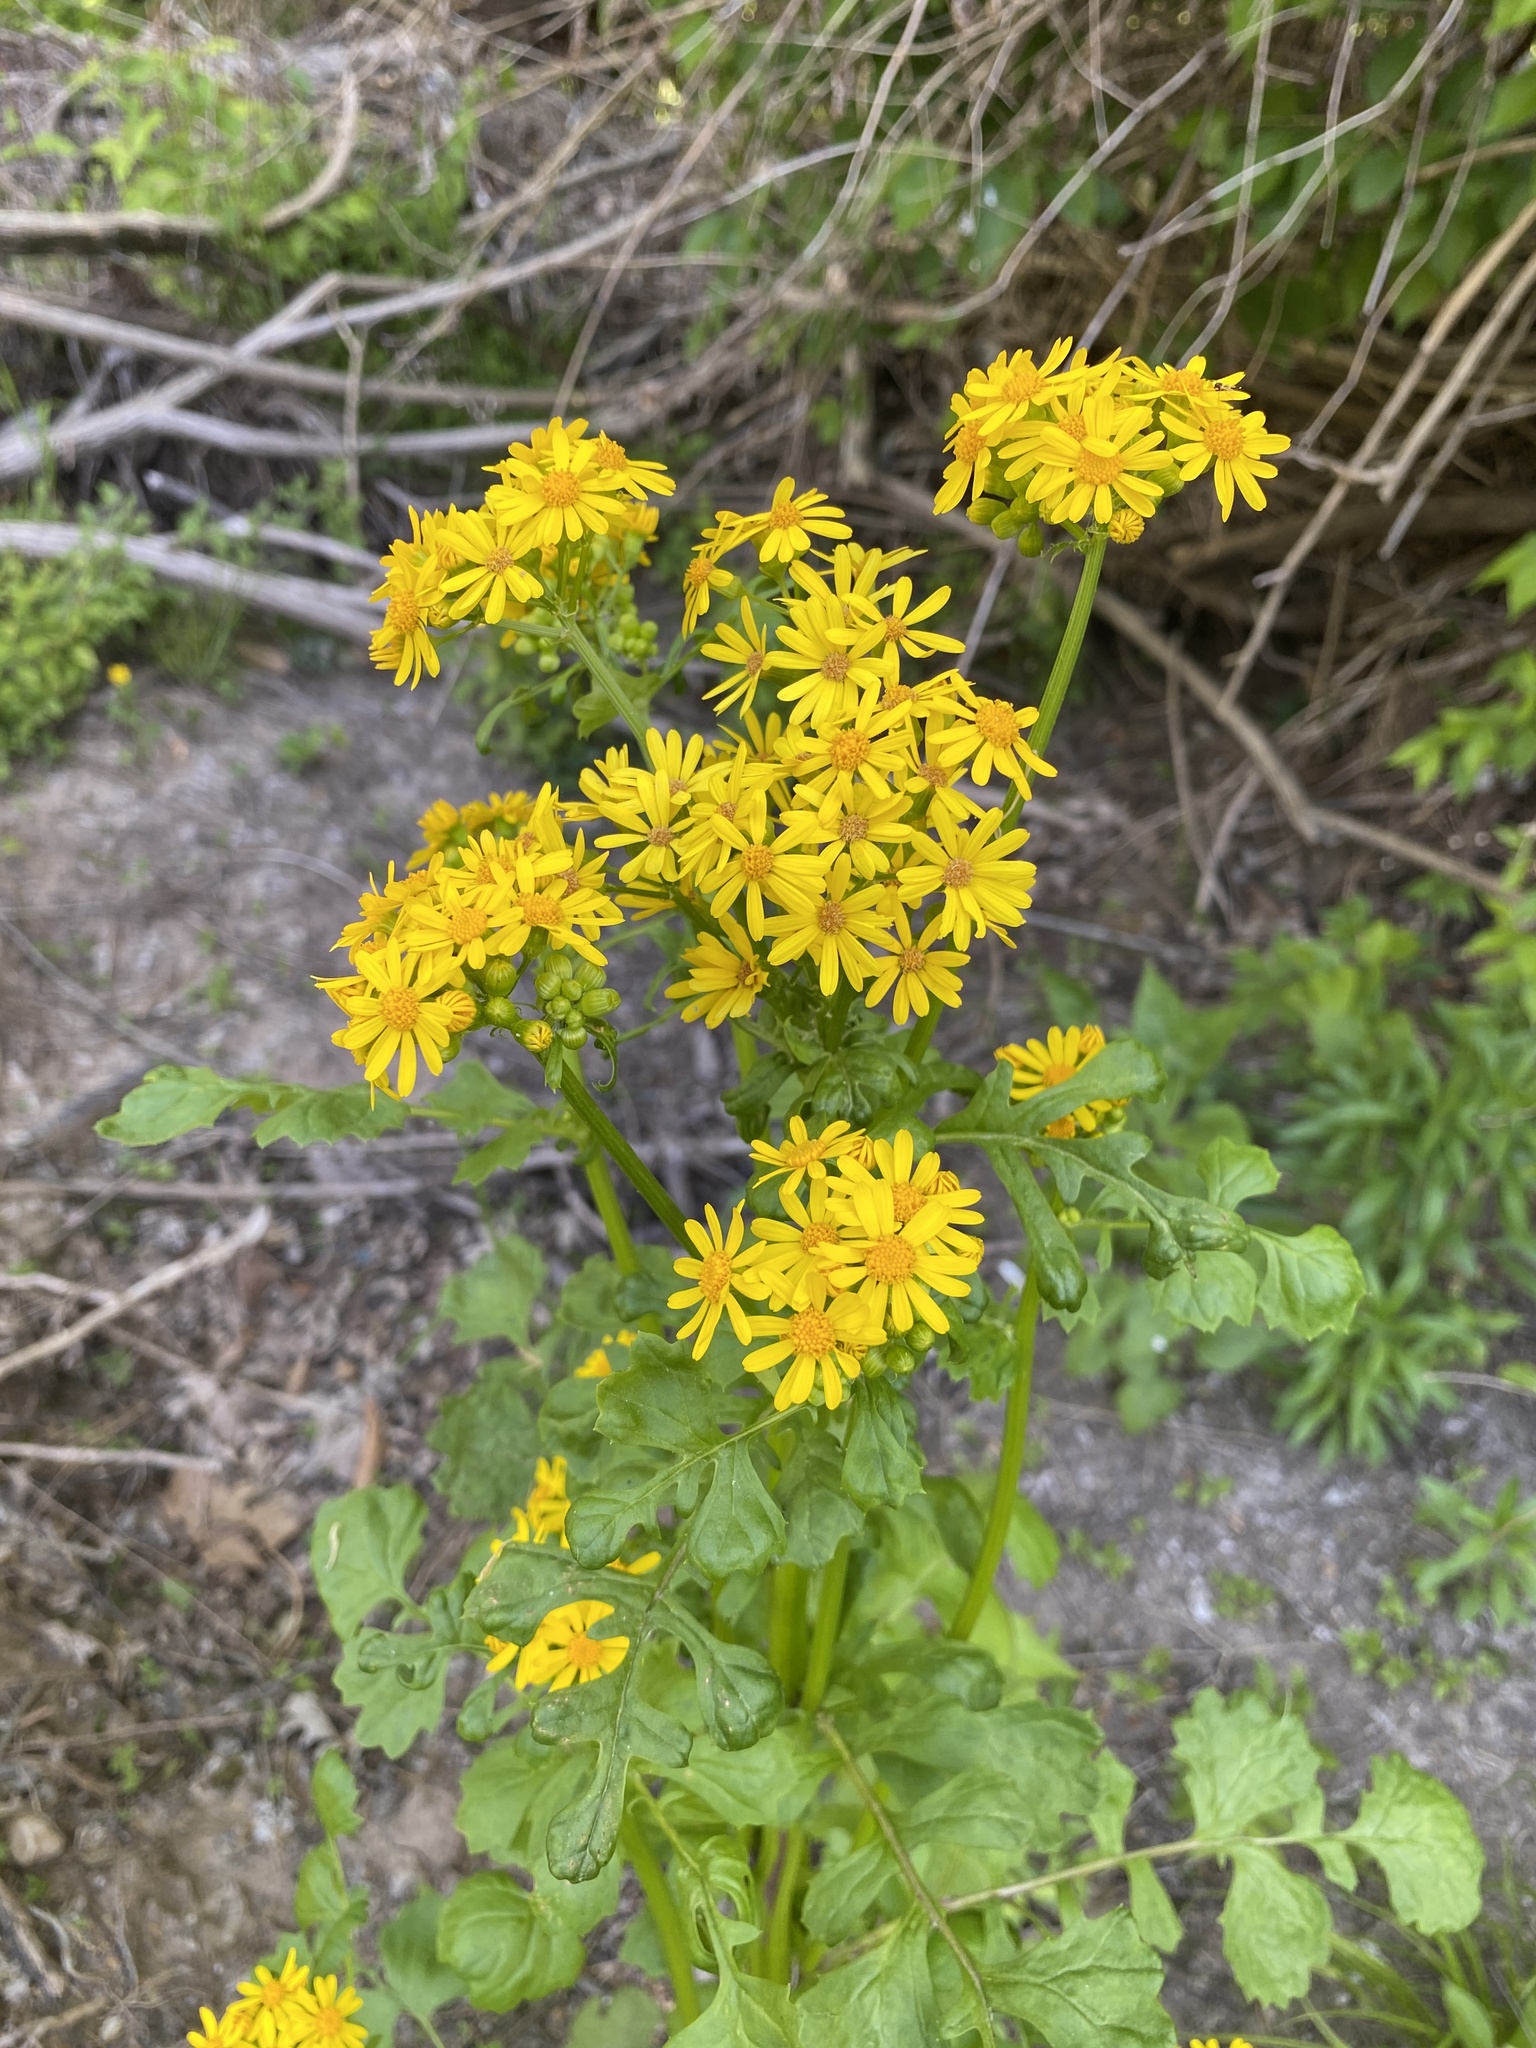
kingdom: Plantae
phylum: Tracheophyta
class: Magnoliopsida
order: Asterales
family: Asteraceae
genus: Packera
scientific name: Packera glabella
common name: Butterweed
